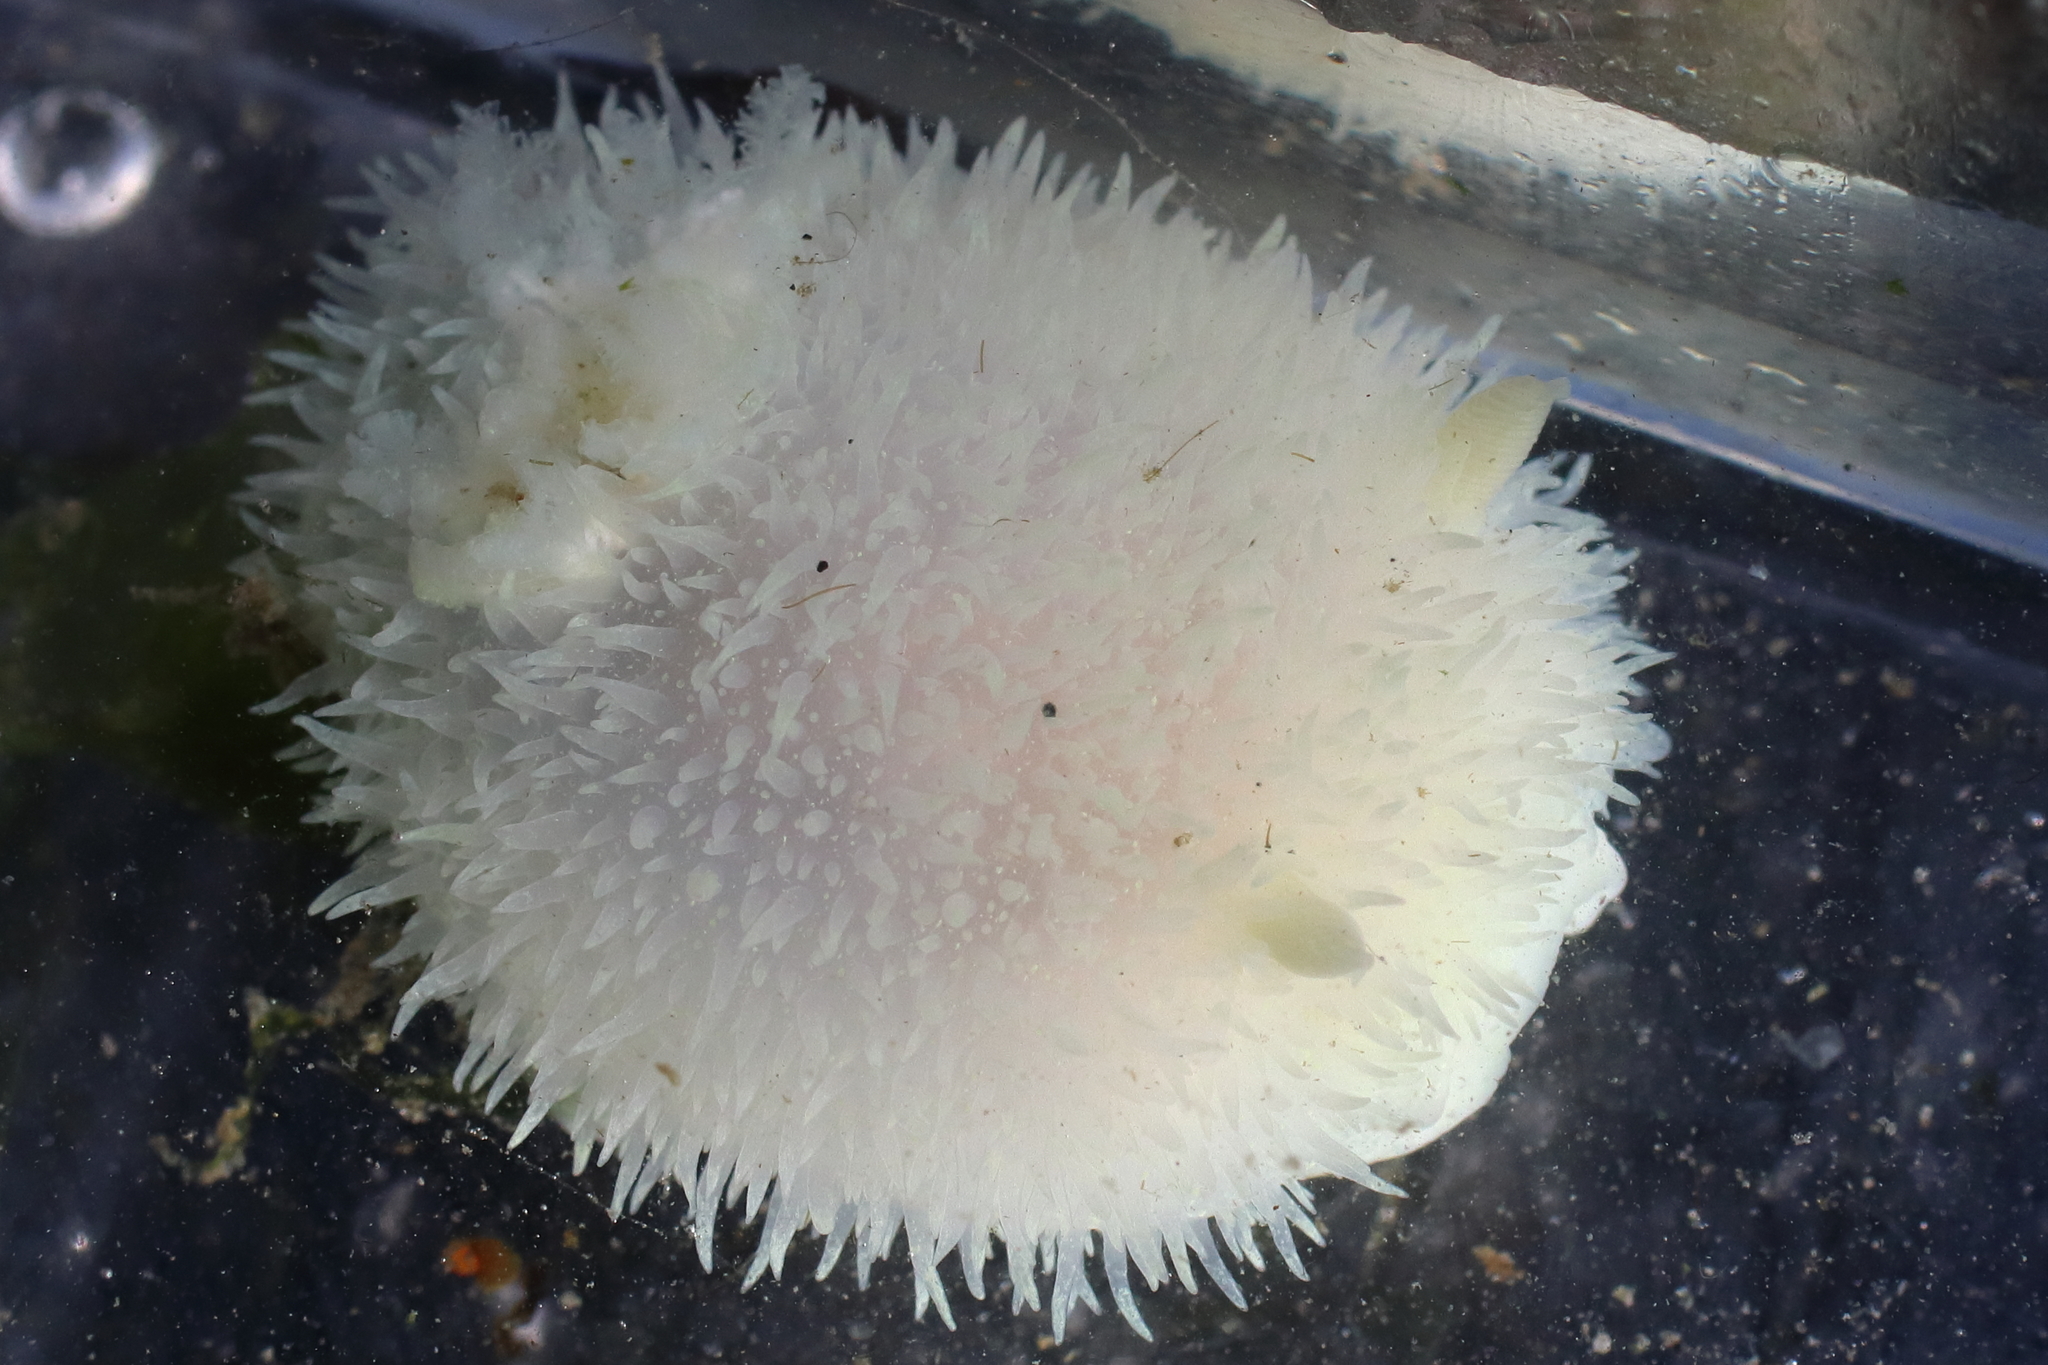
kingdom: Animalia
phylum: Mollusca
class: Gastropoda
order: Nudibranchia
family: Onchidorididae
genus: Acanthodoris
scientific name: Acanthodoris hudsoni
